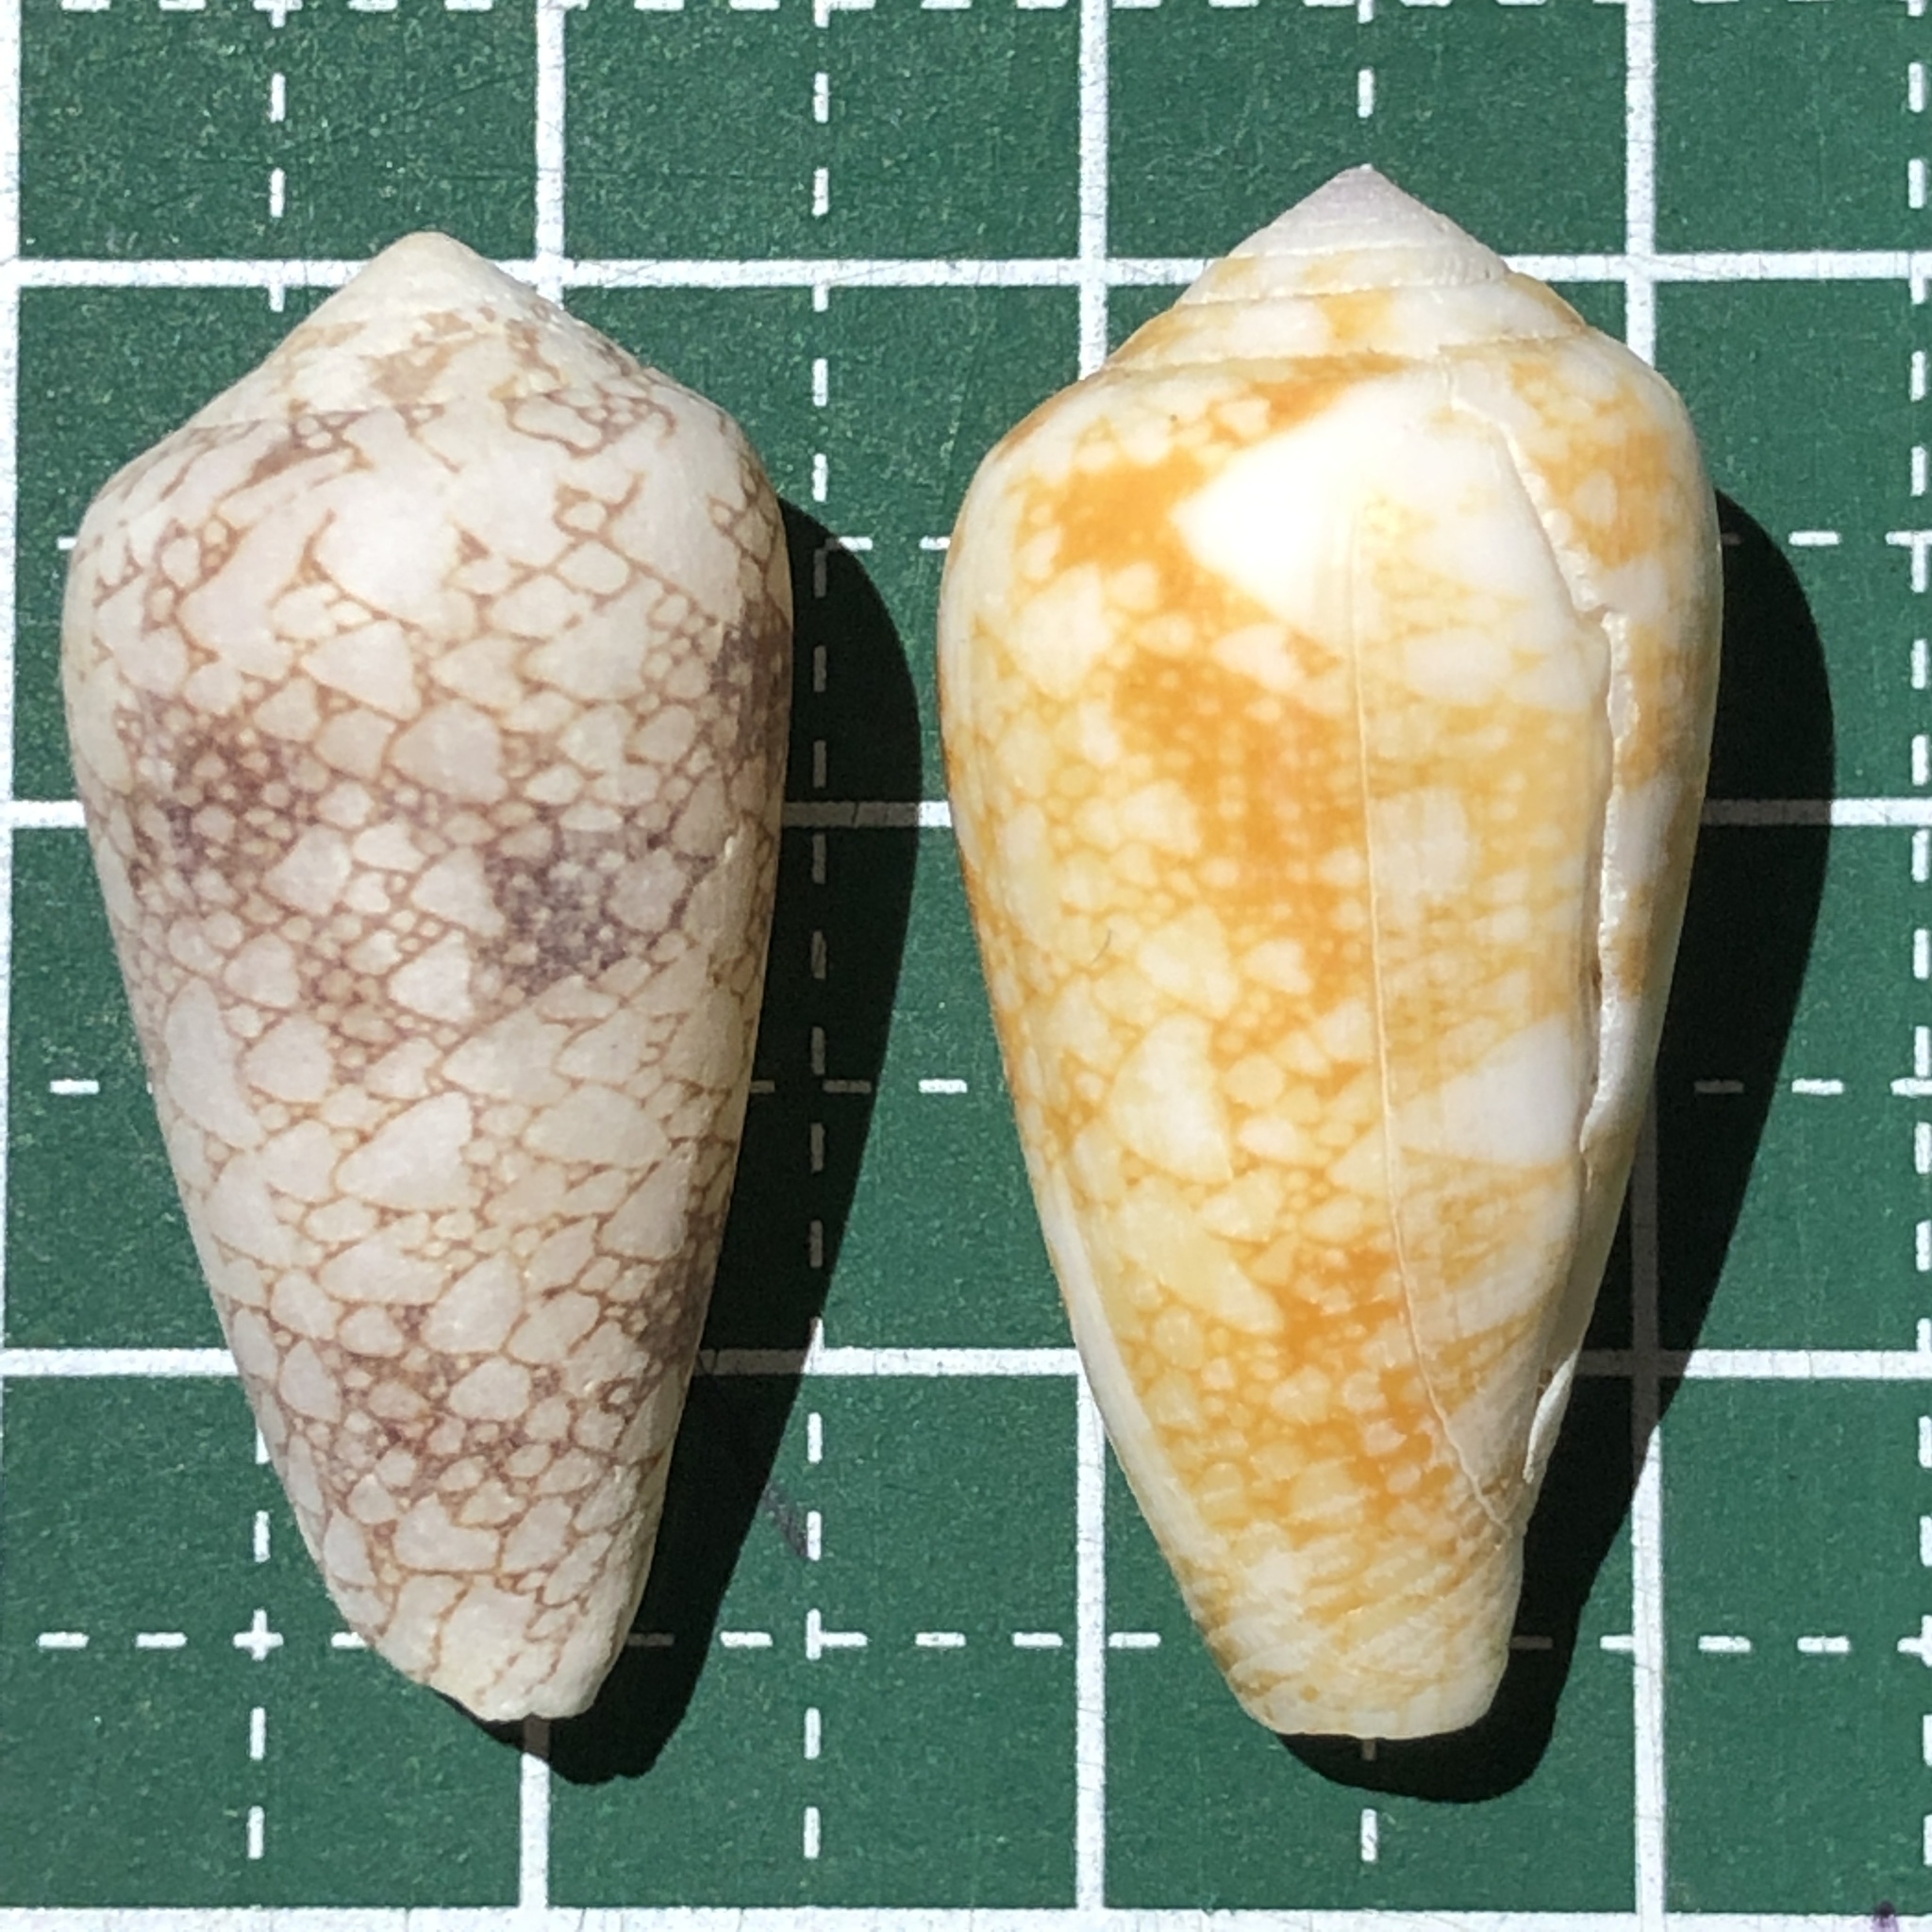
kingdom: Animalia
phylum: Mollusca
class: Gastropoda
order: Neogastropoda
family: Conidae
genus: Conus
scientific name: Conus omaria
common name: Omaria cone
